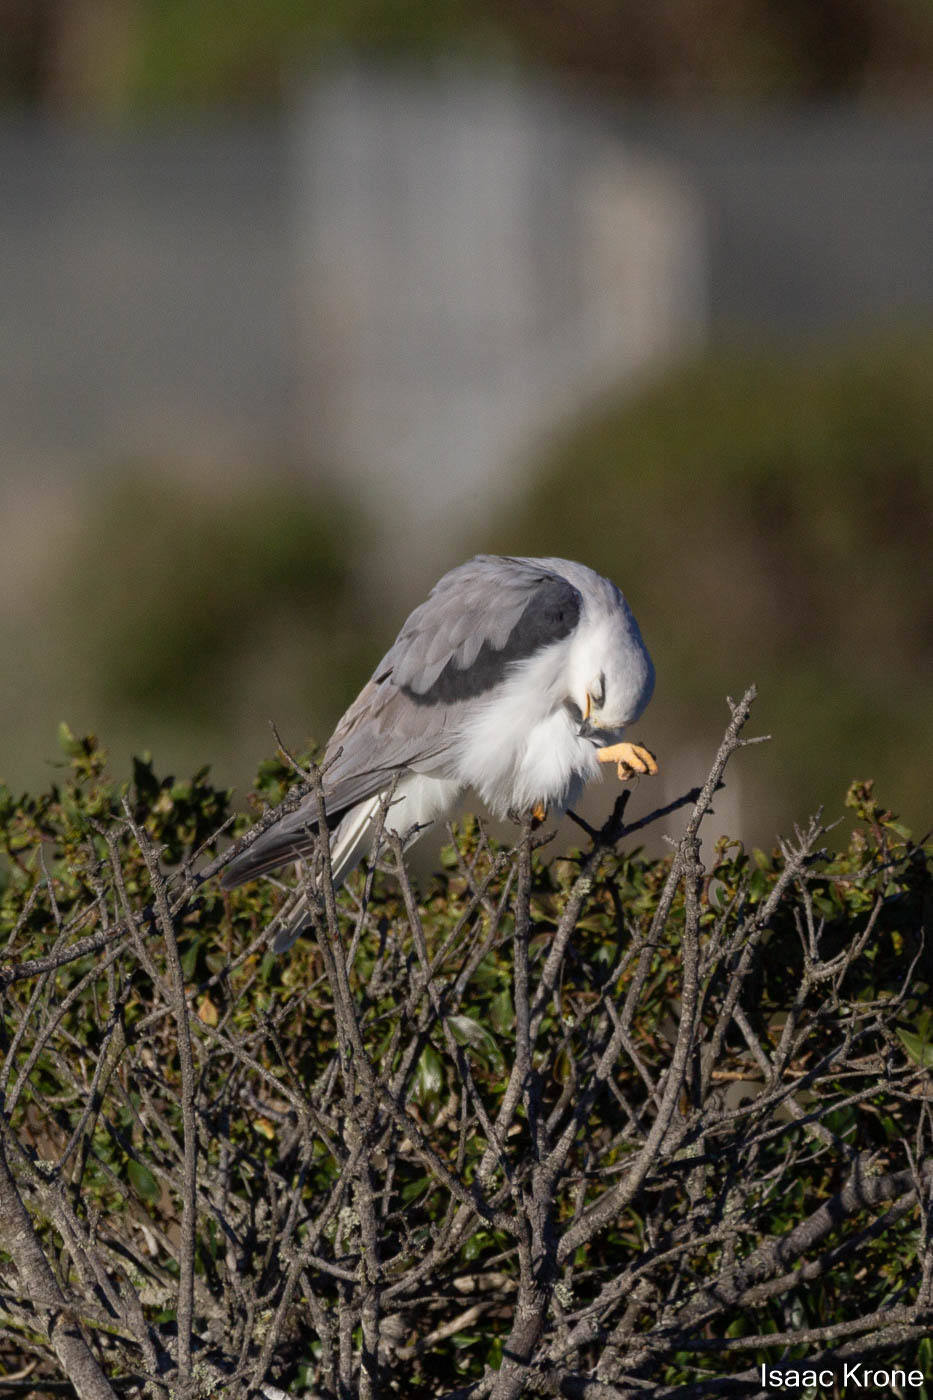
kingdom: Animalia
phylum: Chordata
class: Aves
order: Accipitriformes
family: Accipitridae
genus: Elanus
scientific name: Elanus leucurus
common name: White-tailed kite
